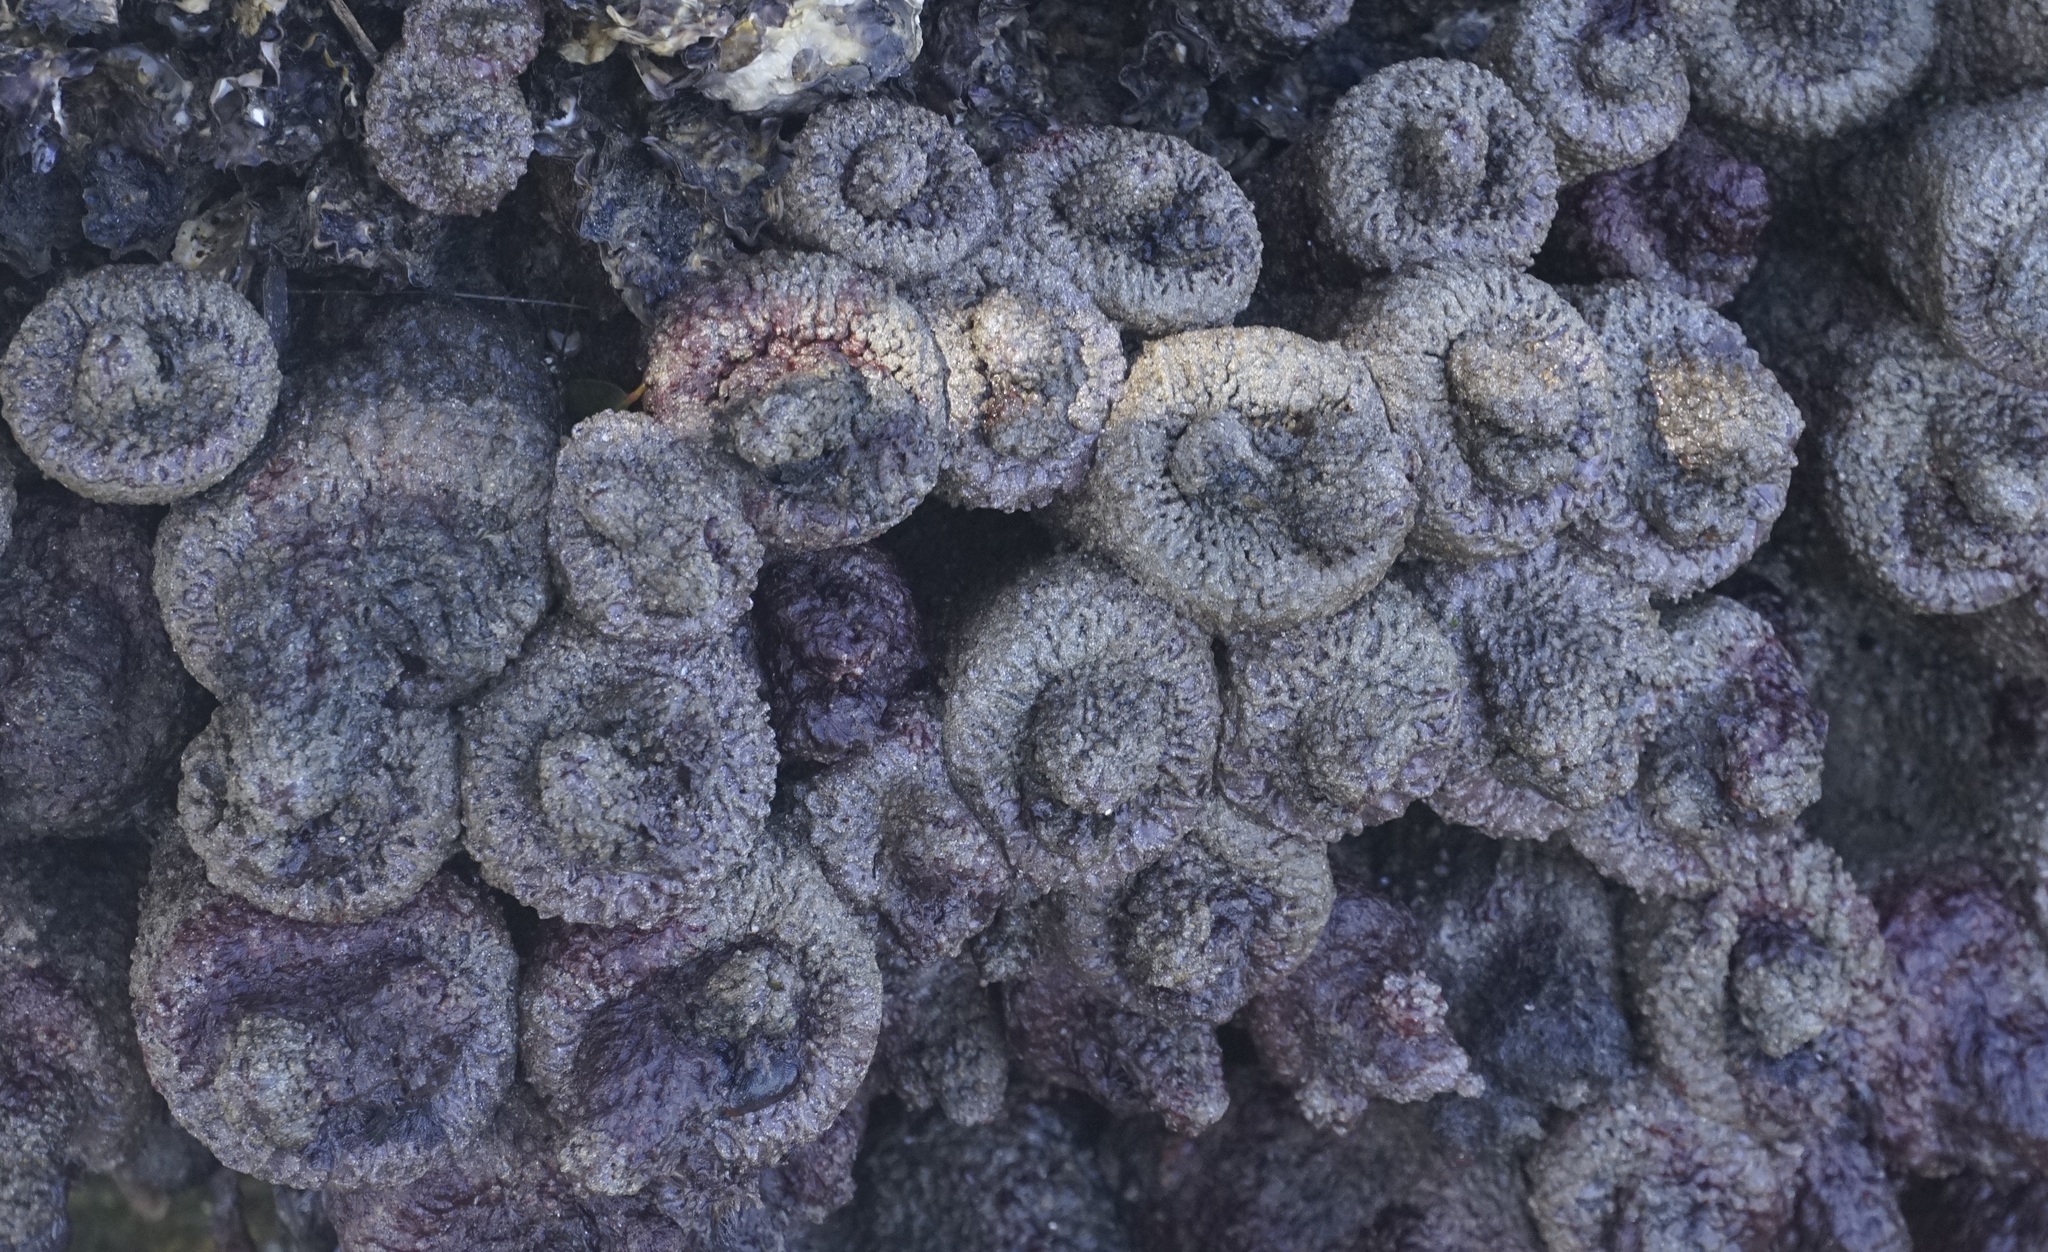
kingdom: Animalia
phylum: Chordata
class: Ascidiacea
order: Stolidobranchia
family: Pyuridae
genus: Pyura
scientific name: Pyura praeputialis
